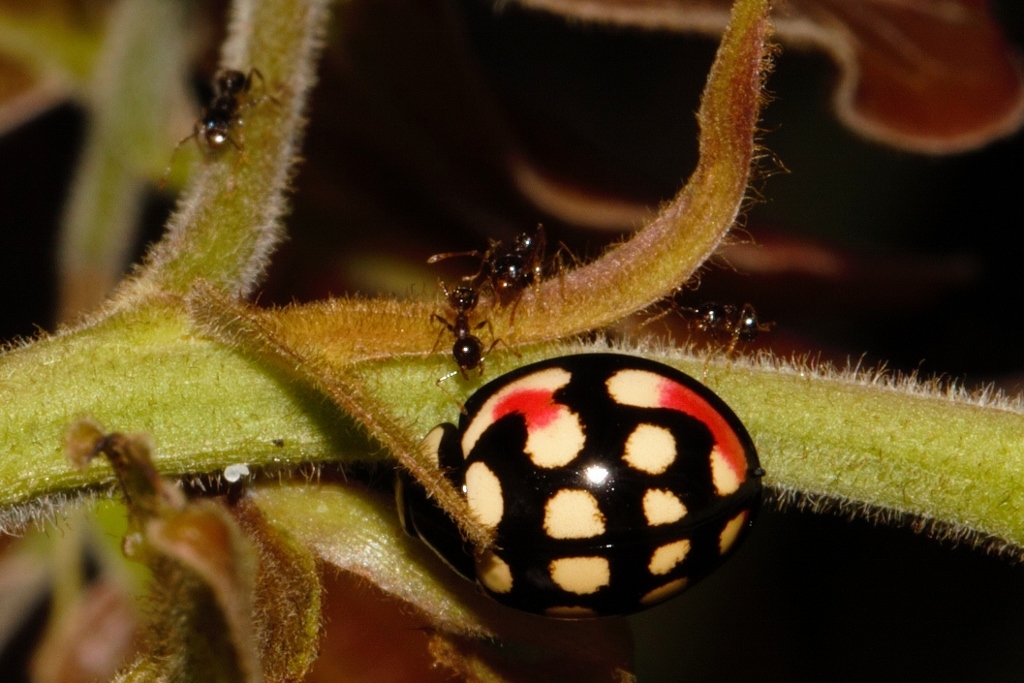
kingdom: Animalia
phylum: Arthropoda
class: Insecta
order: Coleoptera
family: Coccinellidae
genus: Cheilomenes
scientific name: Cheilomenes sulphurea
